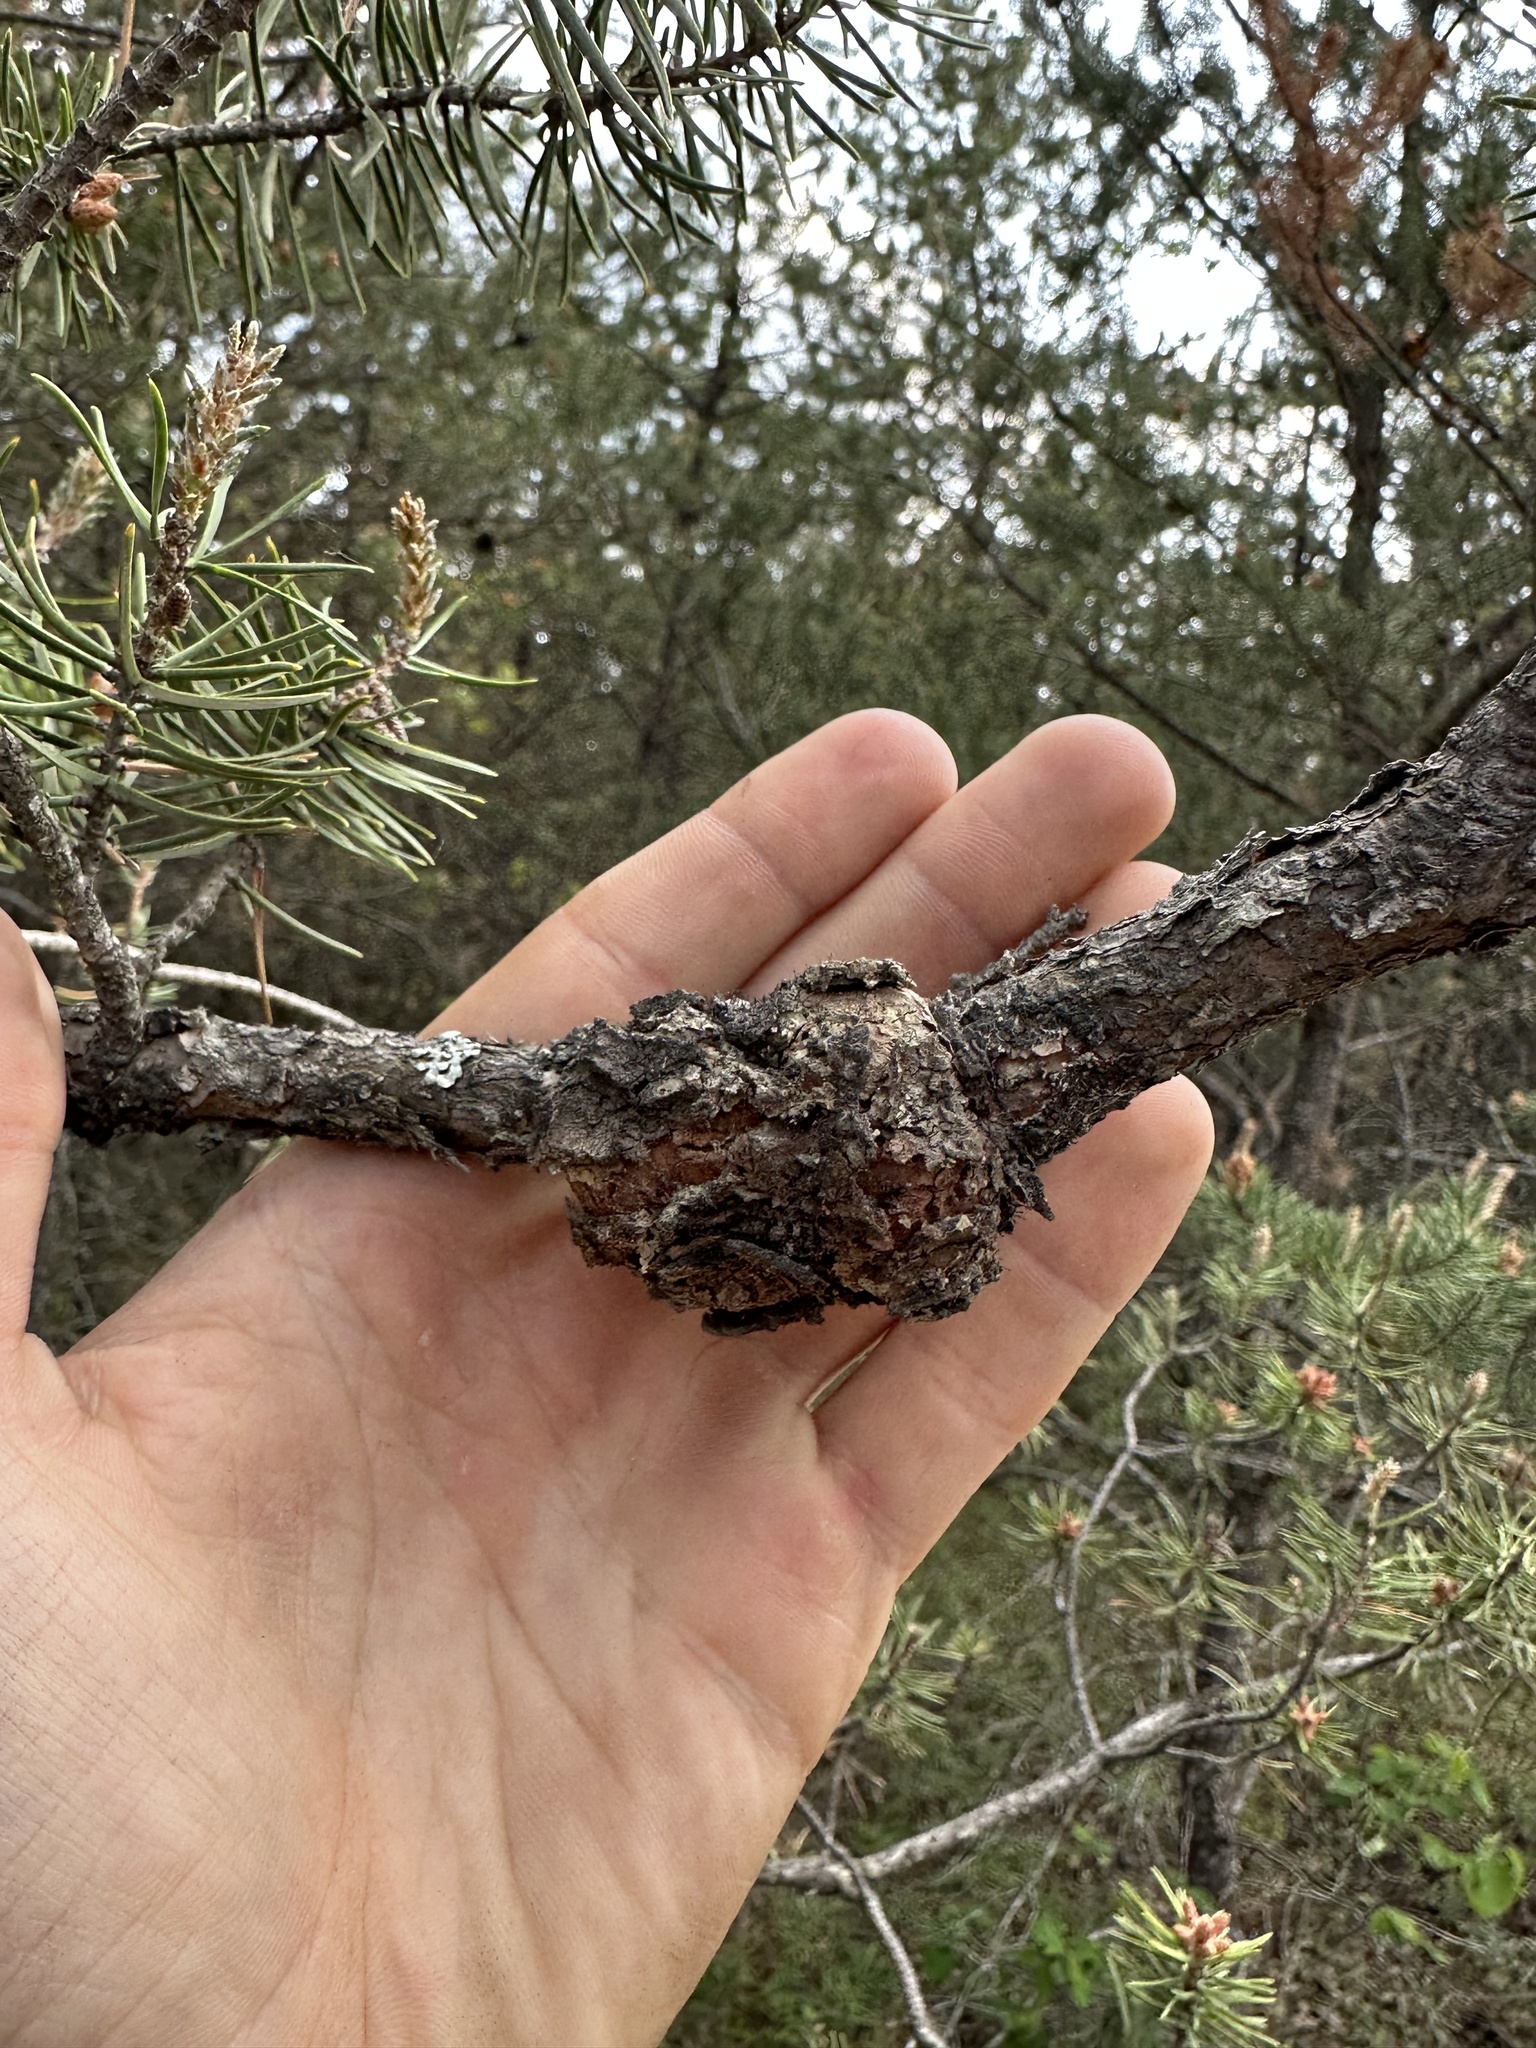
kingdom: Fungi
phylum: Basidiomycota
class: Pucciniomycetes
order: Pucciniales
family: Cronartiaceae
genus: Cronartium
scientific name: Cronartium quercuum
